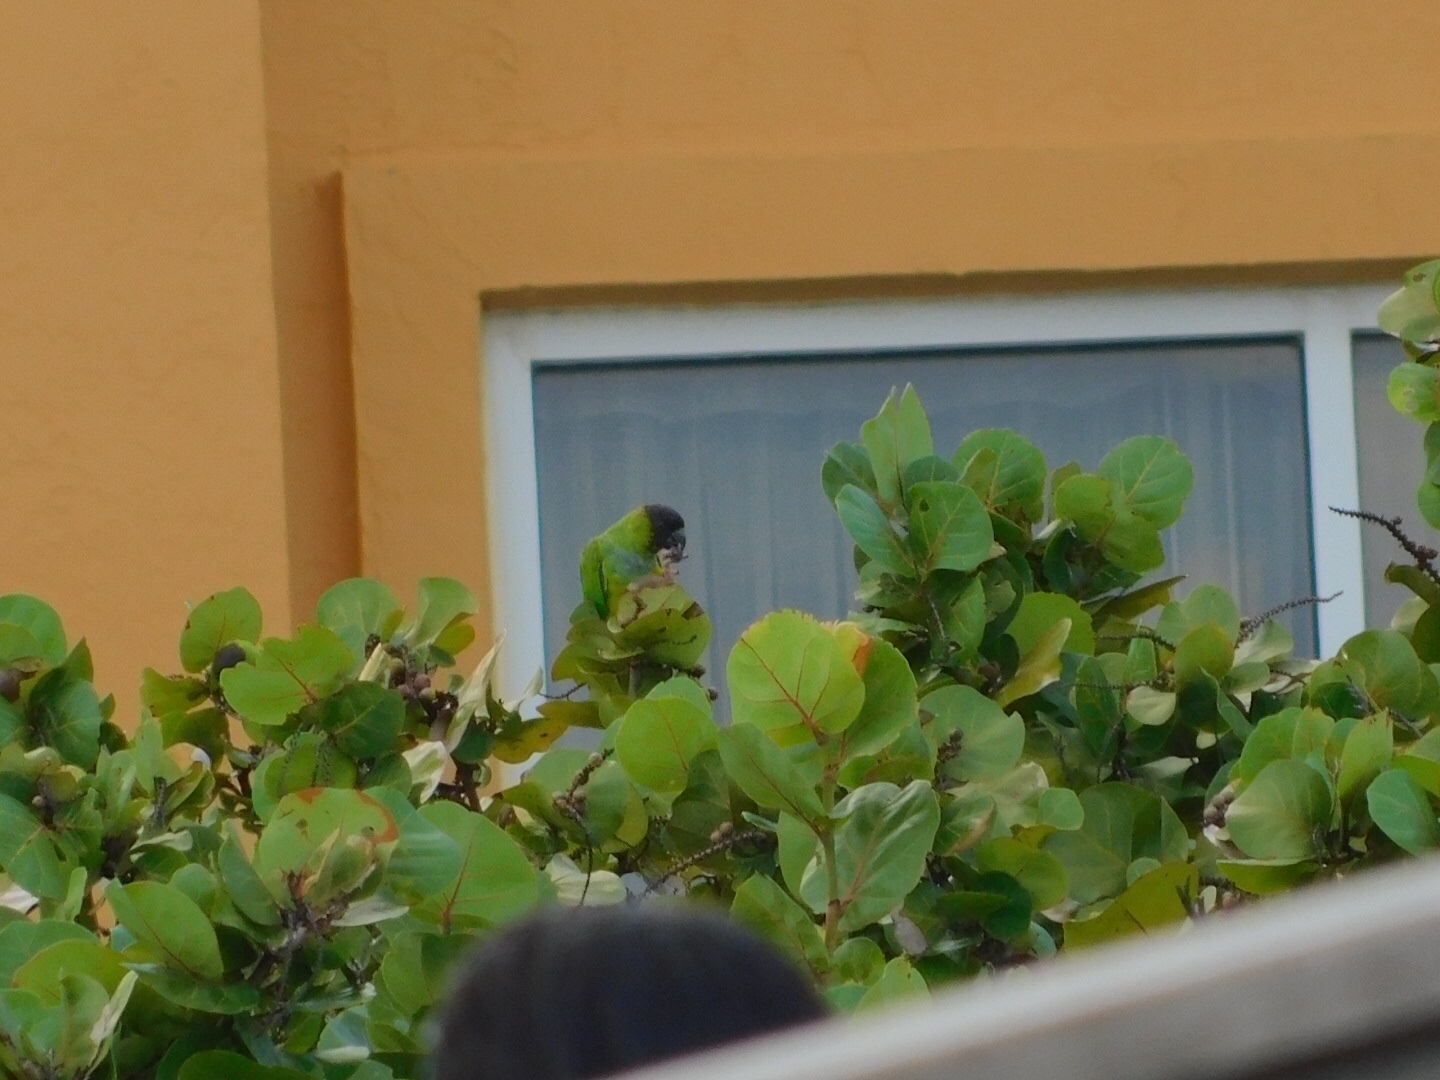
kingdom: Animalia
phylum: Chordata
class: Aves
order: Psittaciformes
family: Psittacidae
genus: Nandayus
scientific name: Nandayus nenday
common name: Nanday parakeet
